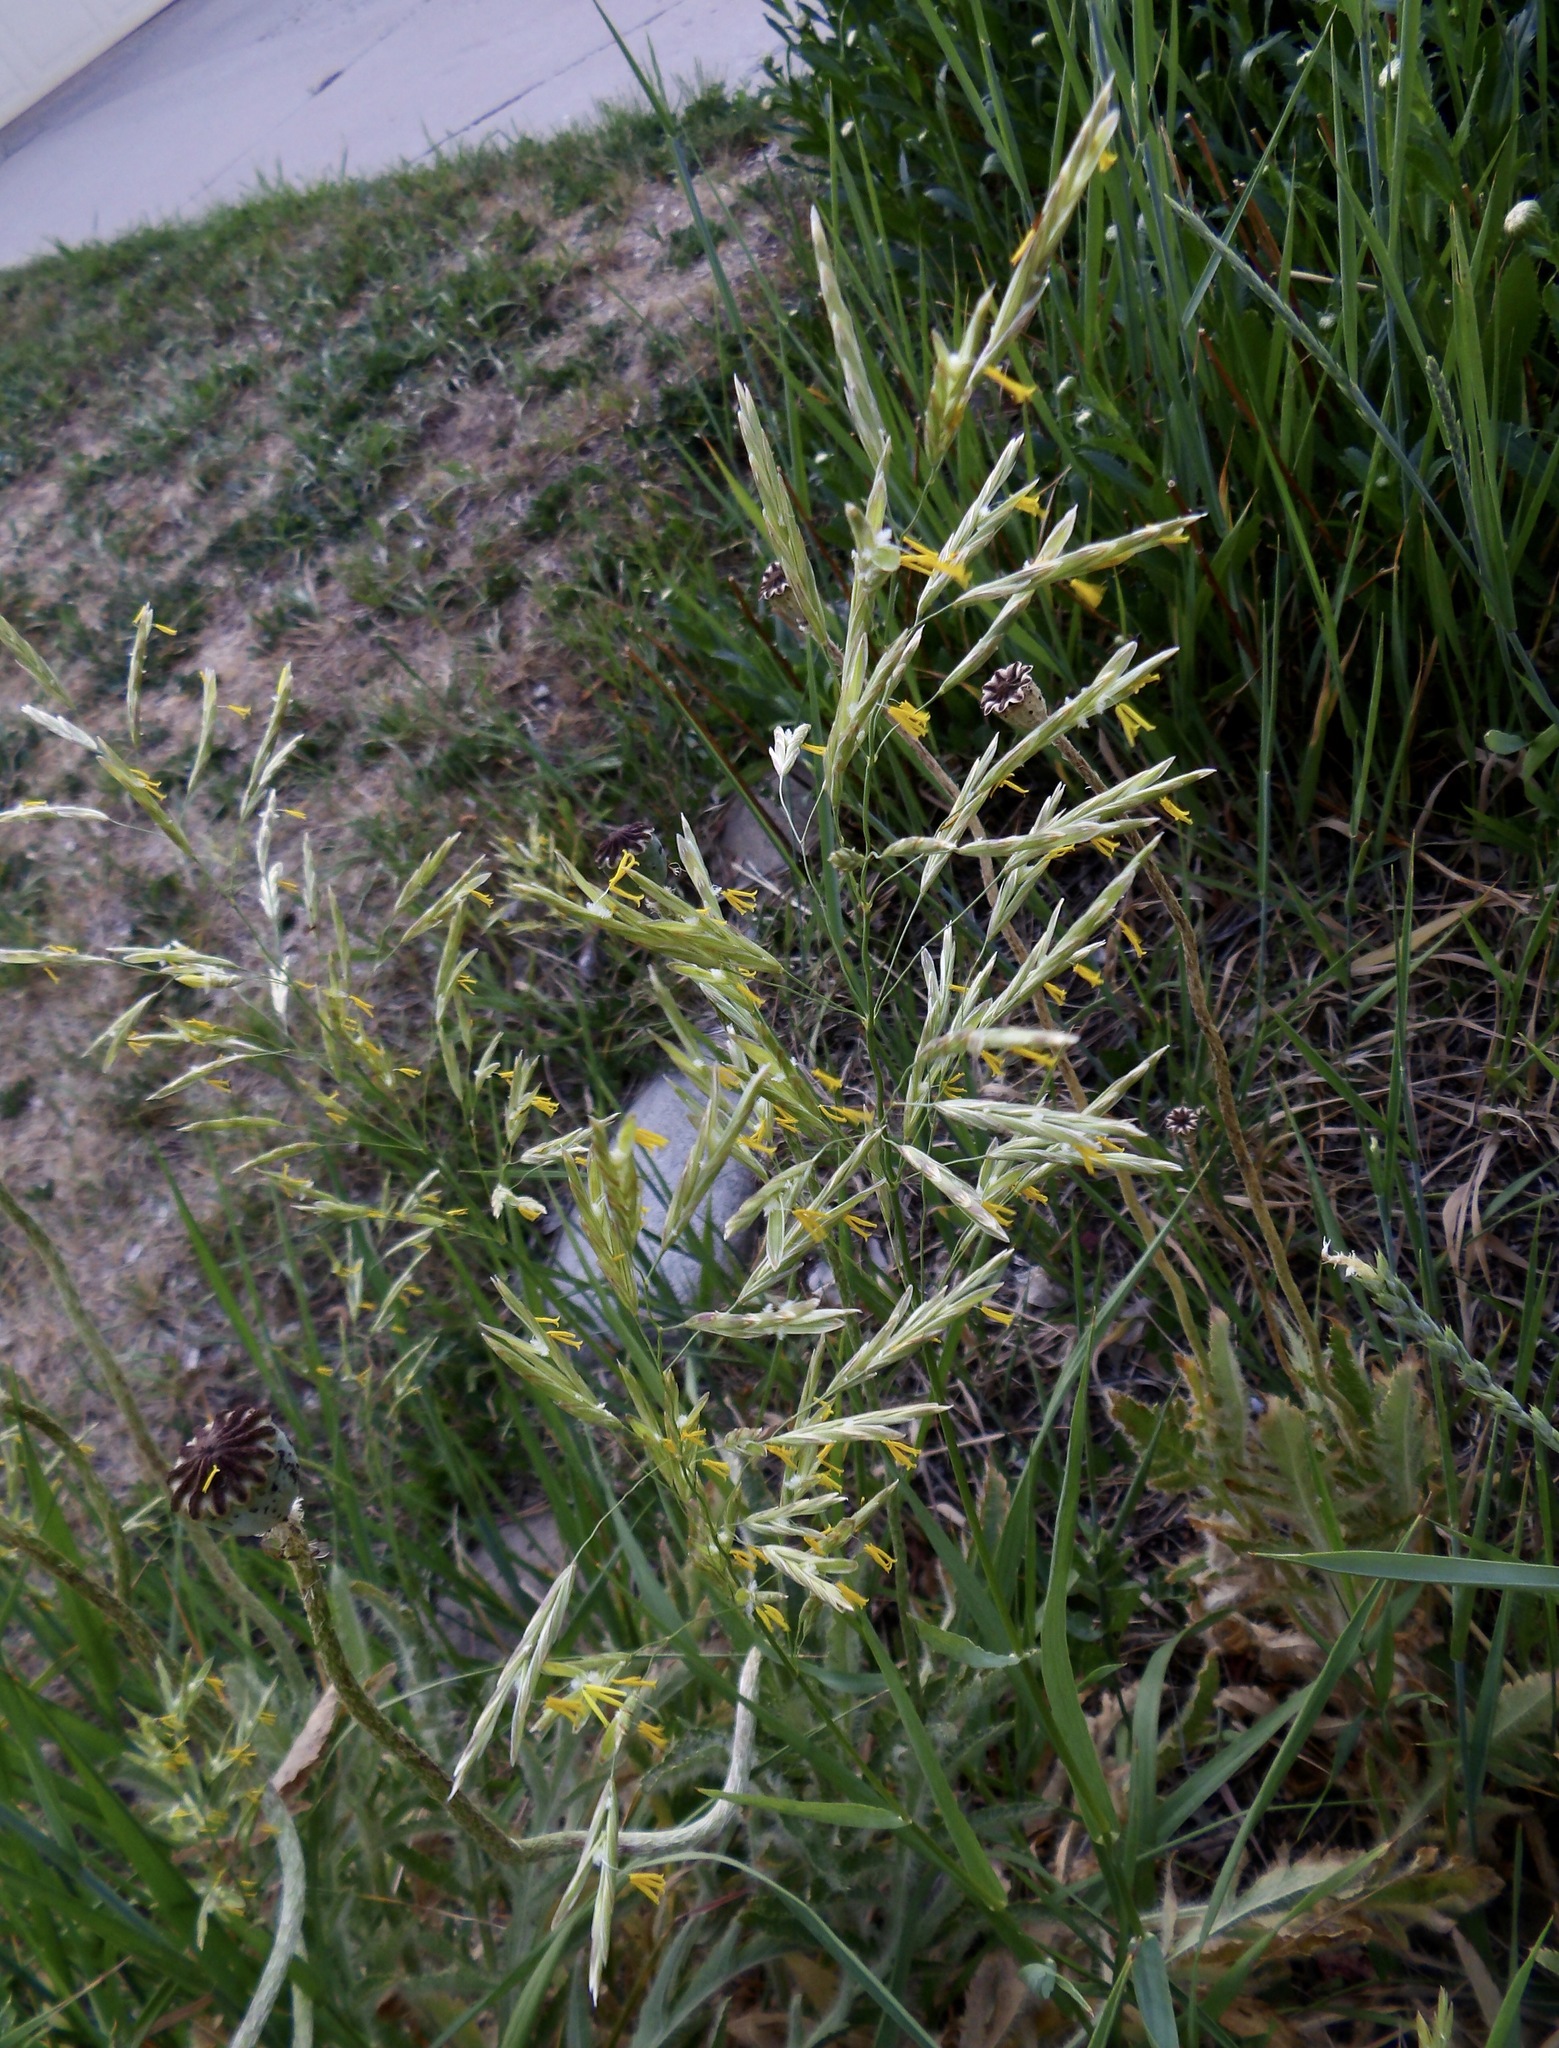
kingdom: Plantae
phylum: Tracheophyta
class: Liliopsida
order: Poales
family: Poaceae
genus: Bromus
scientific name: Bromus inermis
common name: Smooth brome
